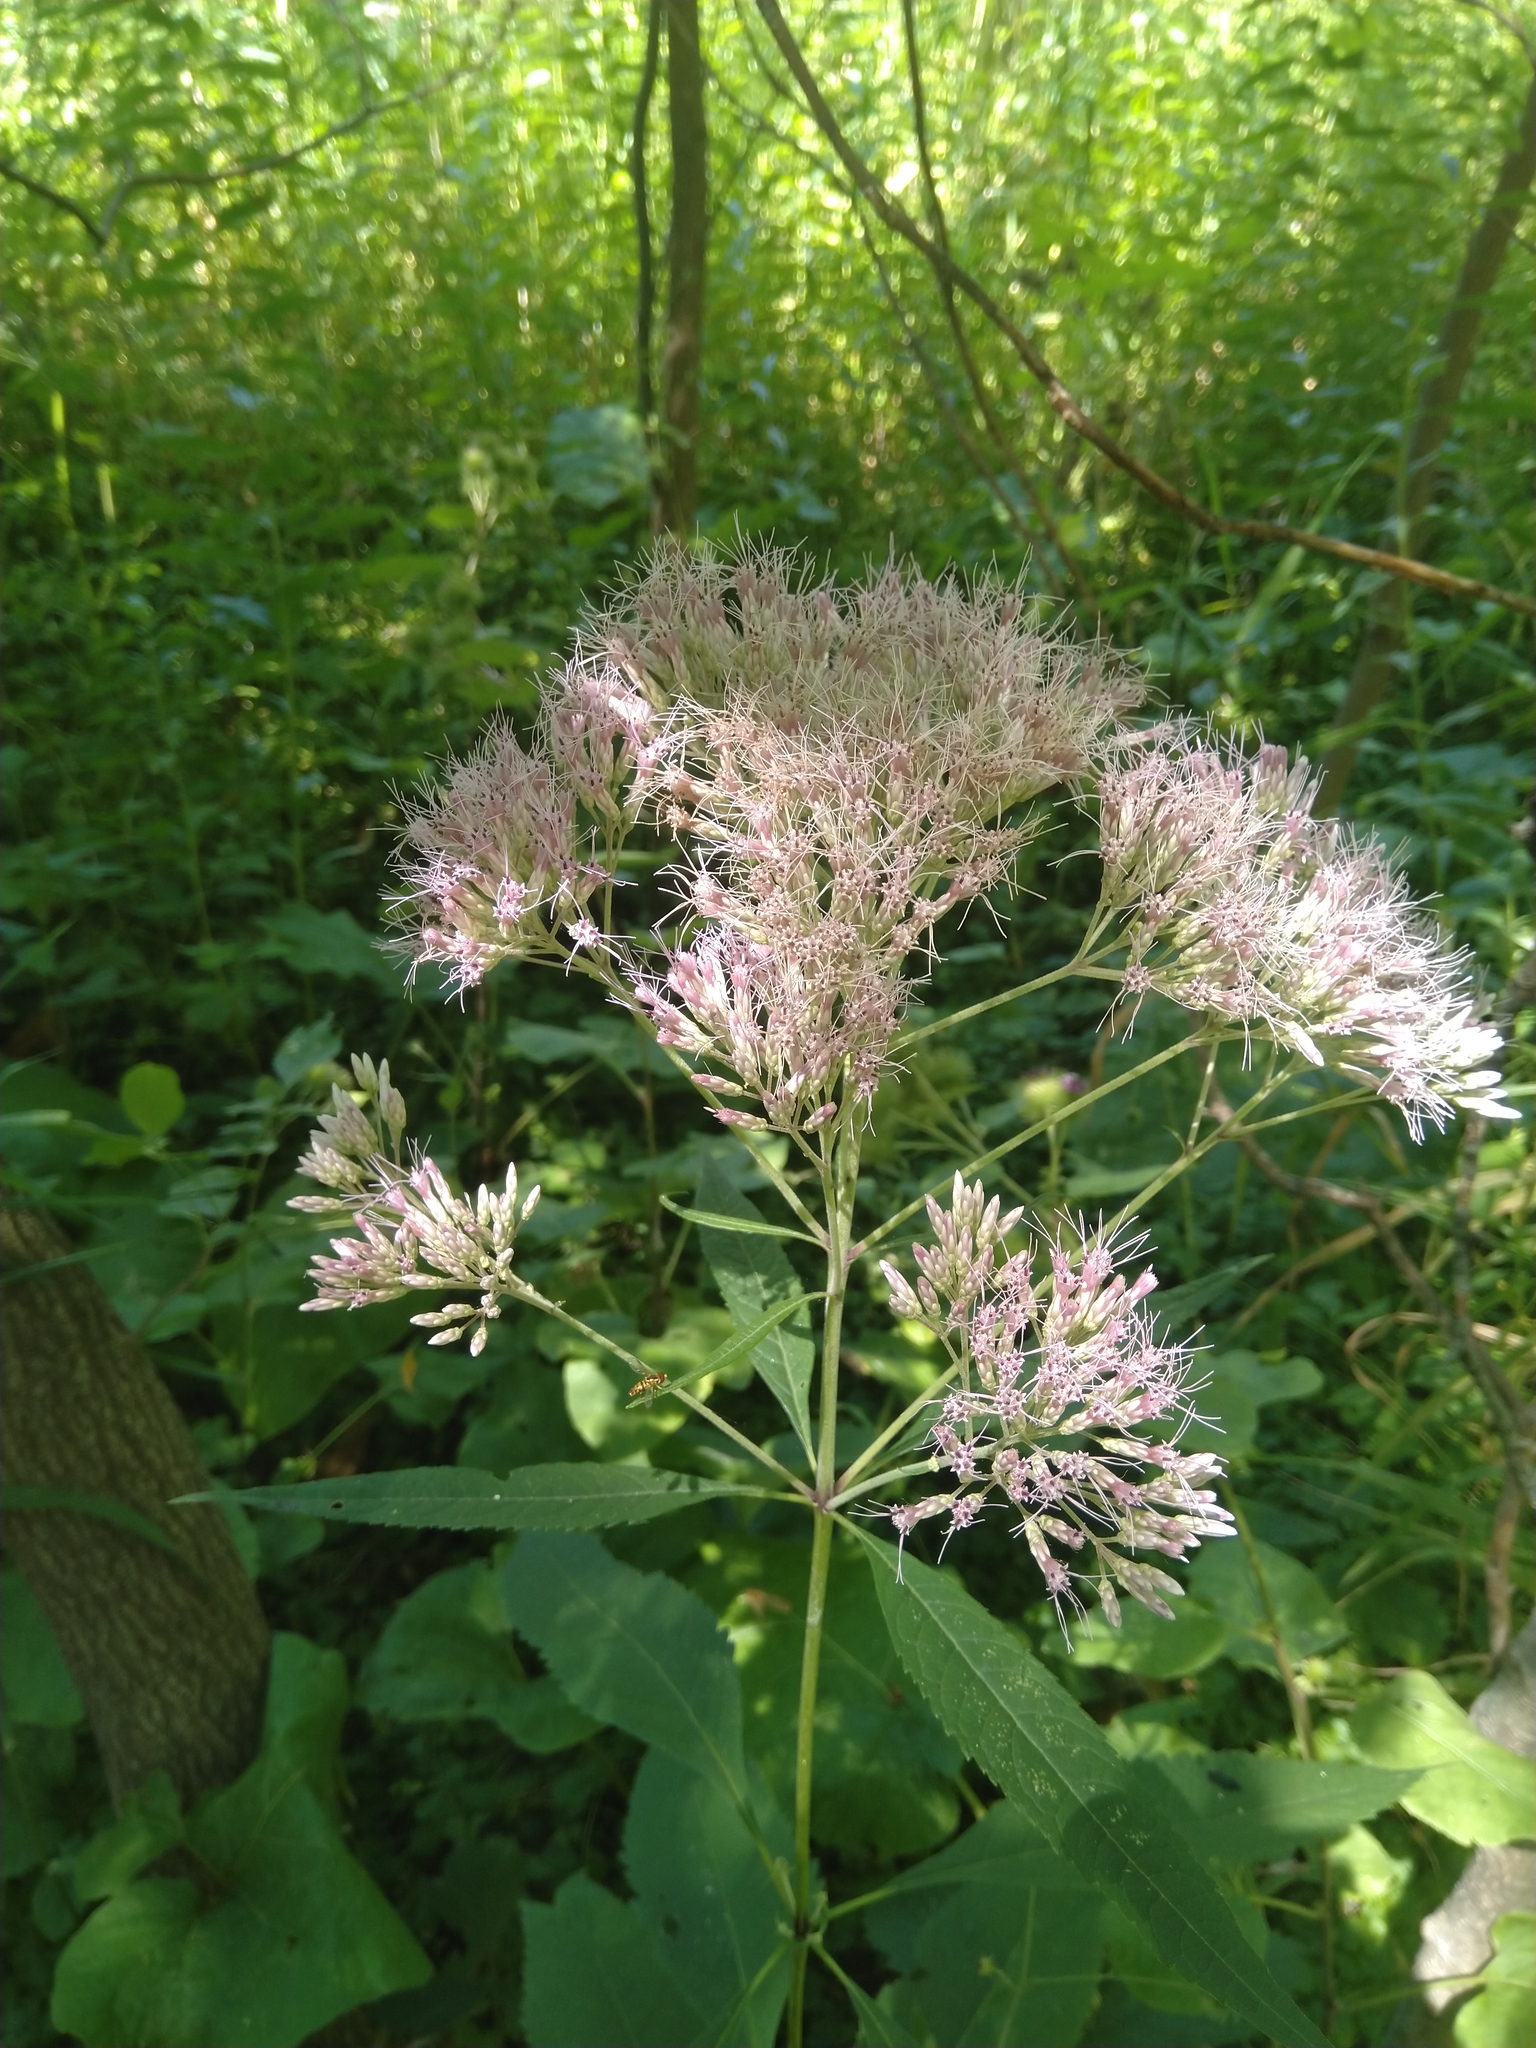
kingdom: Plantae
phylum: Tracheophyta
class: Magnoliopsida
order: Asterales
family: Asteraceae
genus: Eutrochium
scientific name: Eutrochium purpureum
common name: Gravelroot
